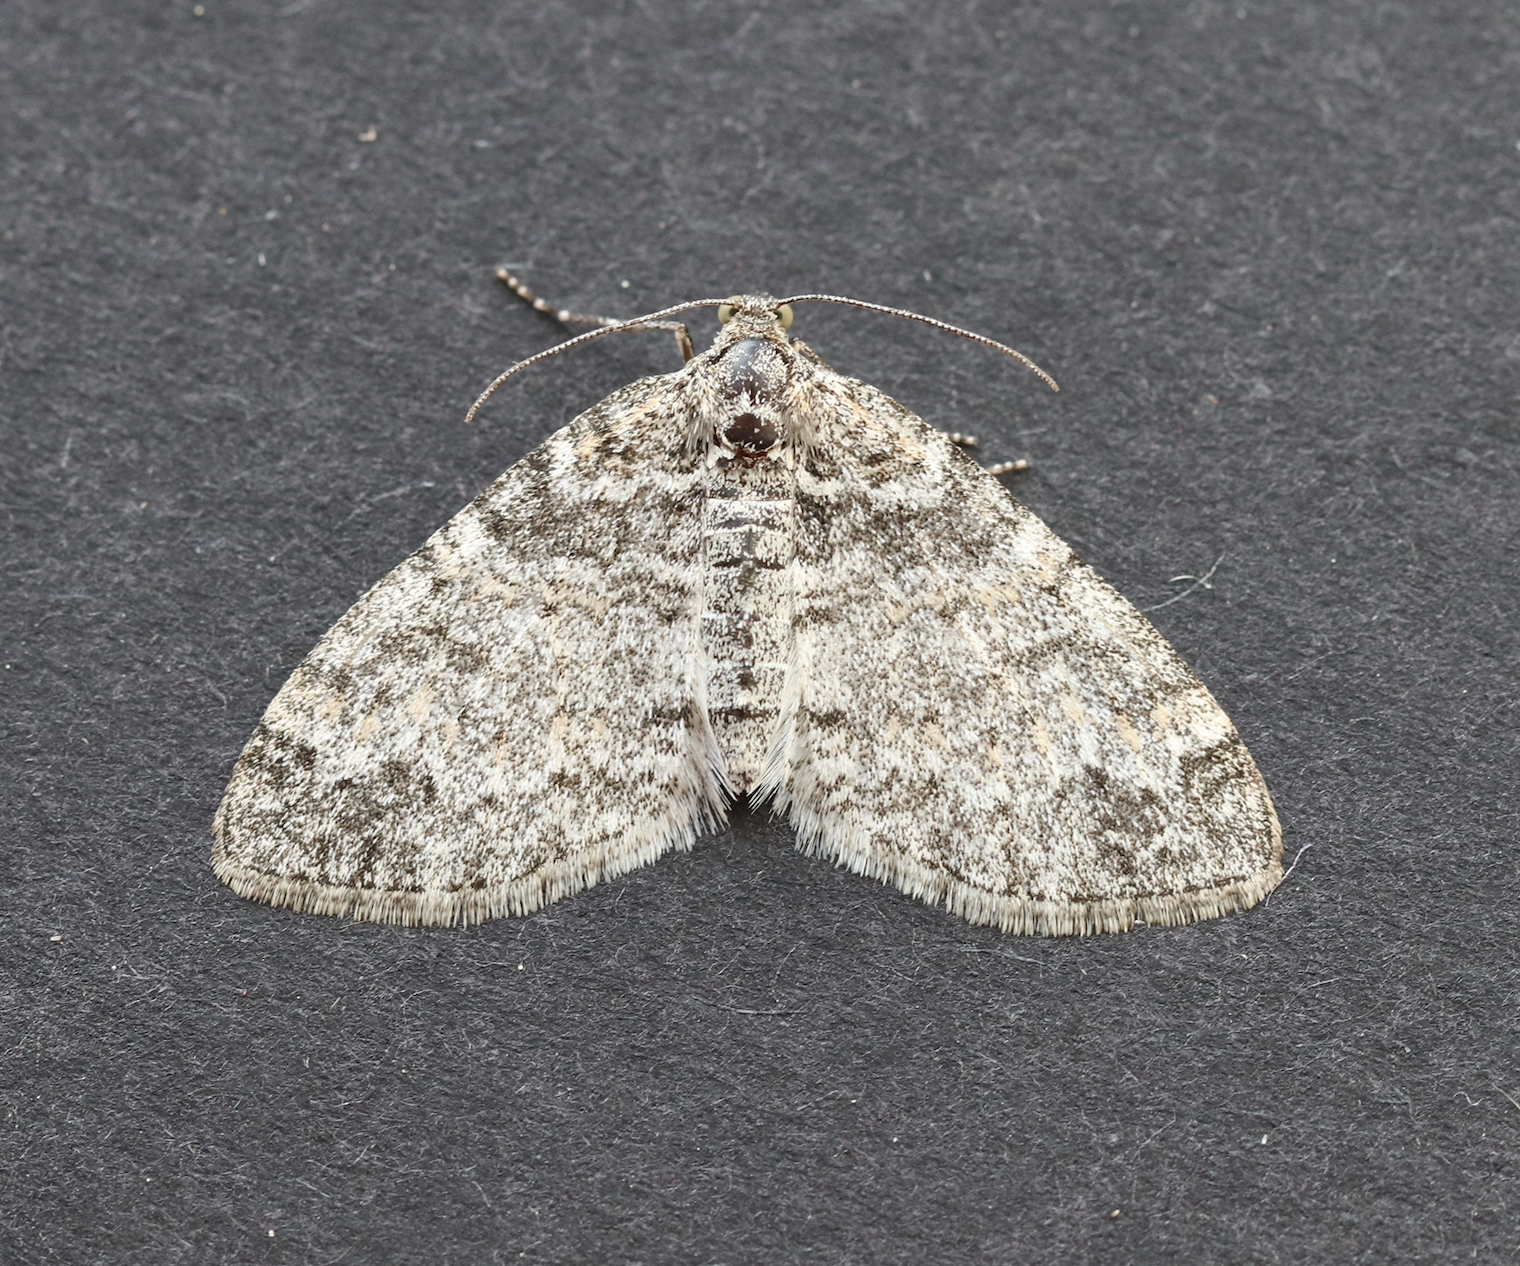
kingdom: Animalia
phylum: Arthropoda
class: Insecta
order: Lepidoptera
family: Geometridae
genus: Lobophora
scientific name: Lobophora halterata
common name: Seraphim
